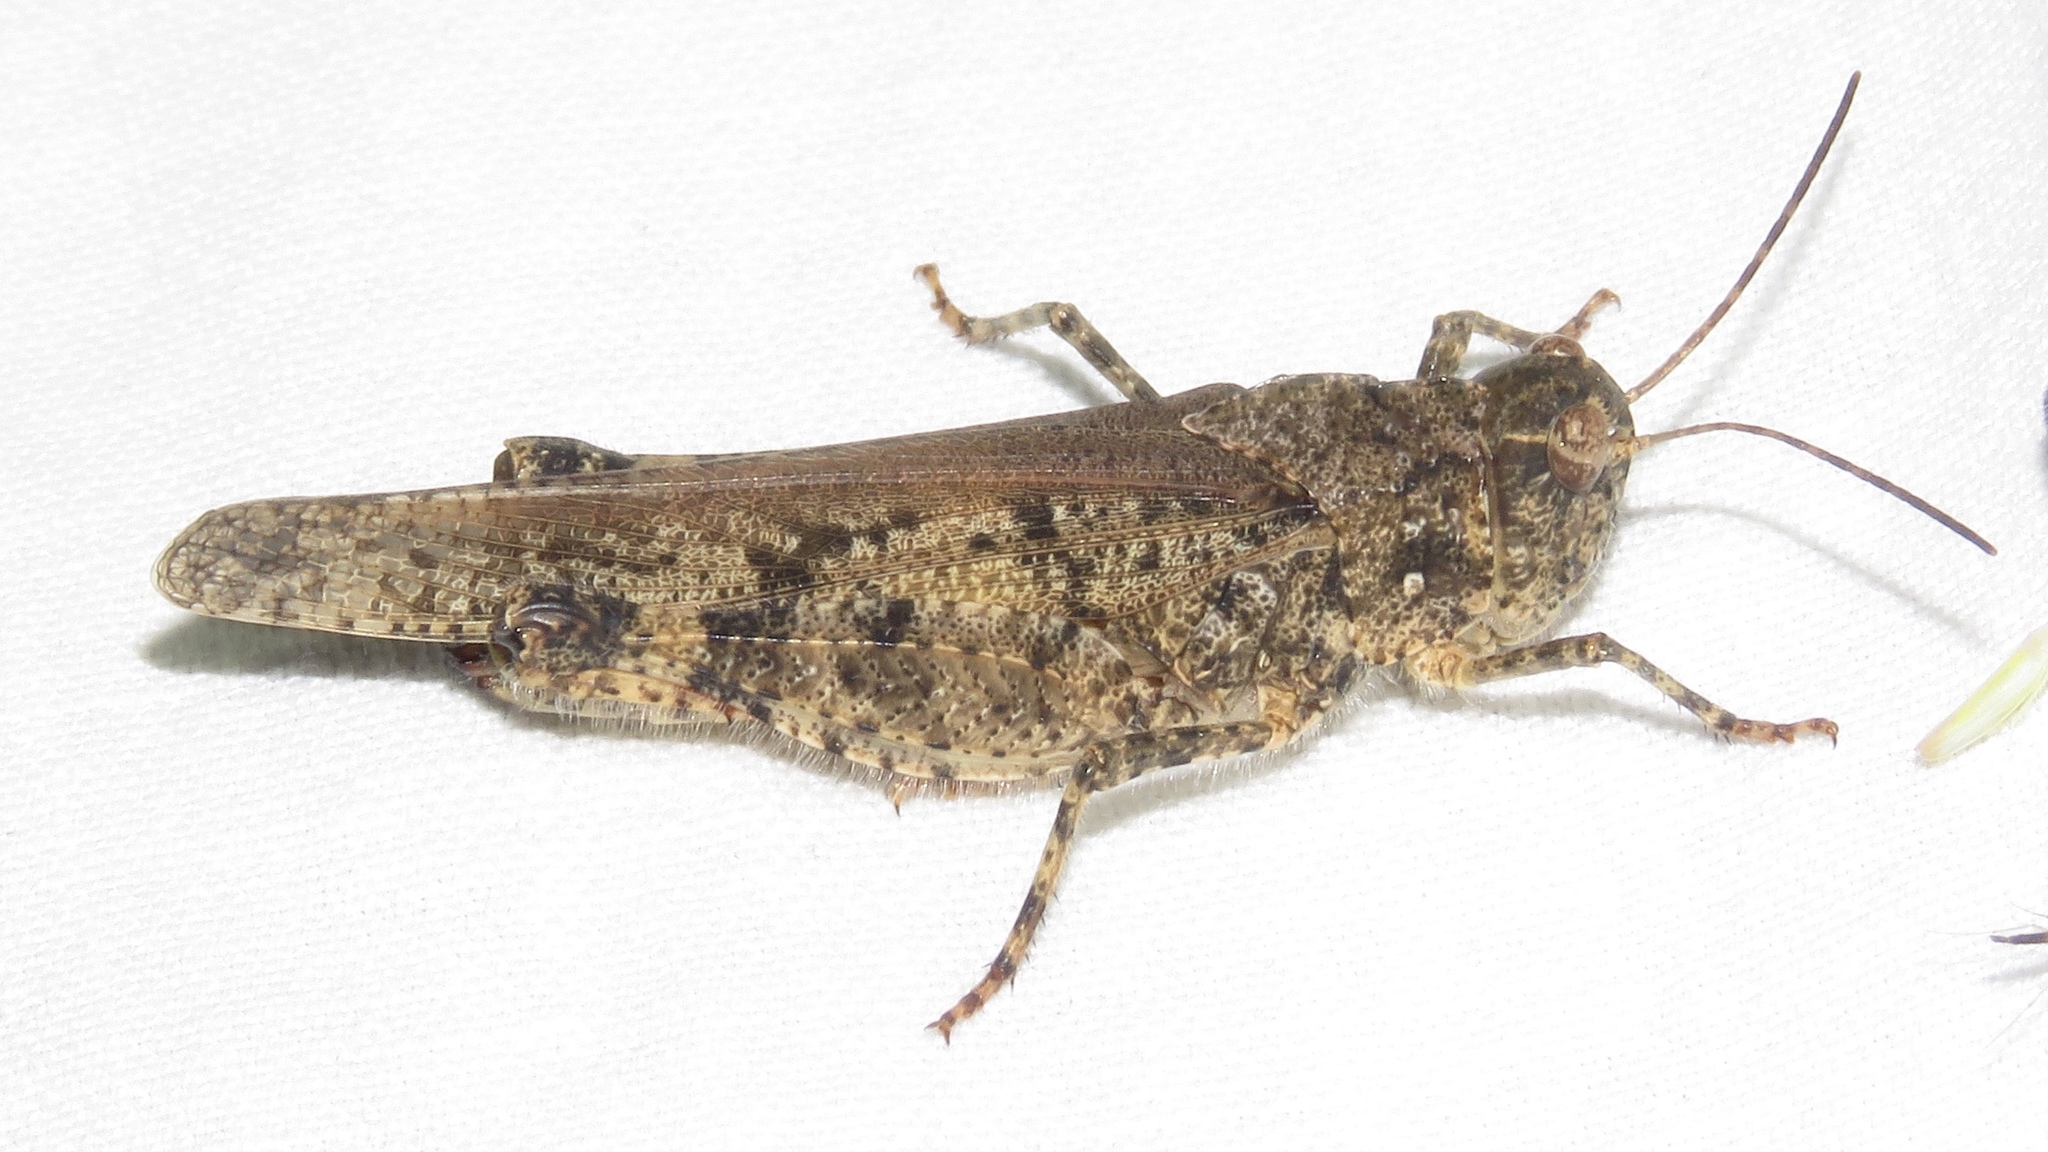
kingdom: Animalia
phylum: Arthropoda
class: Insecta
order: Orthoptera
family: Acrididae
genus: Spharagemon
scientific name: Spharagemon collare
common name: Mottled sand grasshopper
